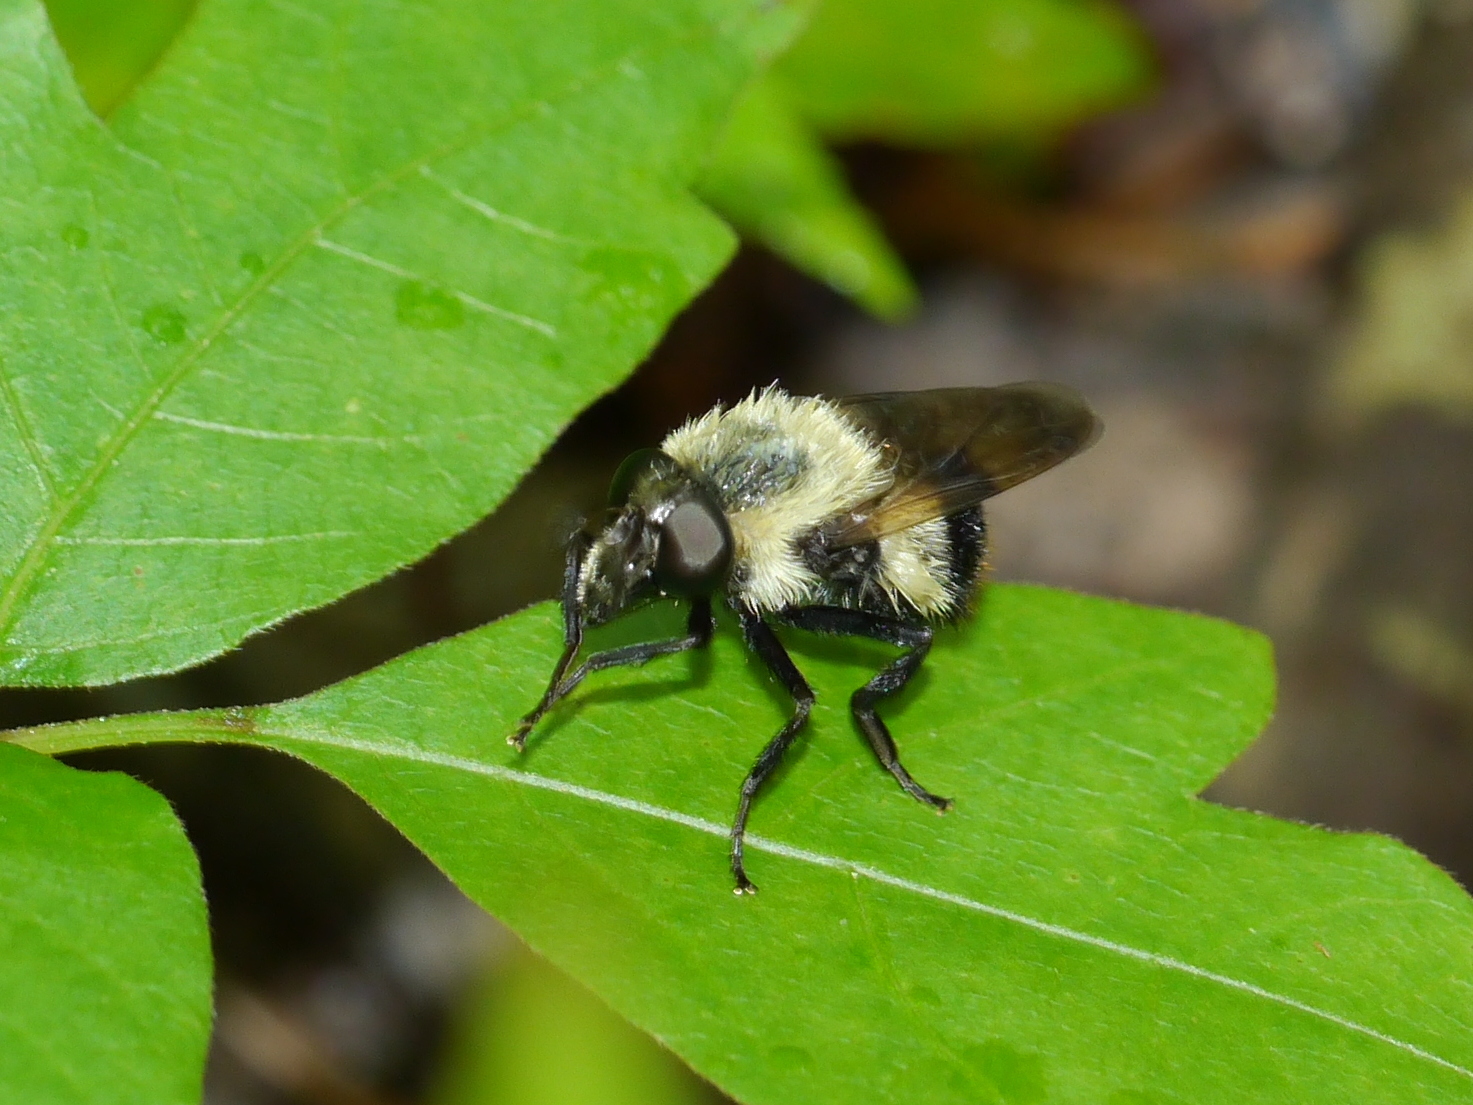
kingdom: Animalia
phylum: Arthropoda
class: Insecta
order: Diptera
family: Syrphidae
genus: Merodon
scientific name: Merodon equestris
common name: Greater bulb-fly
